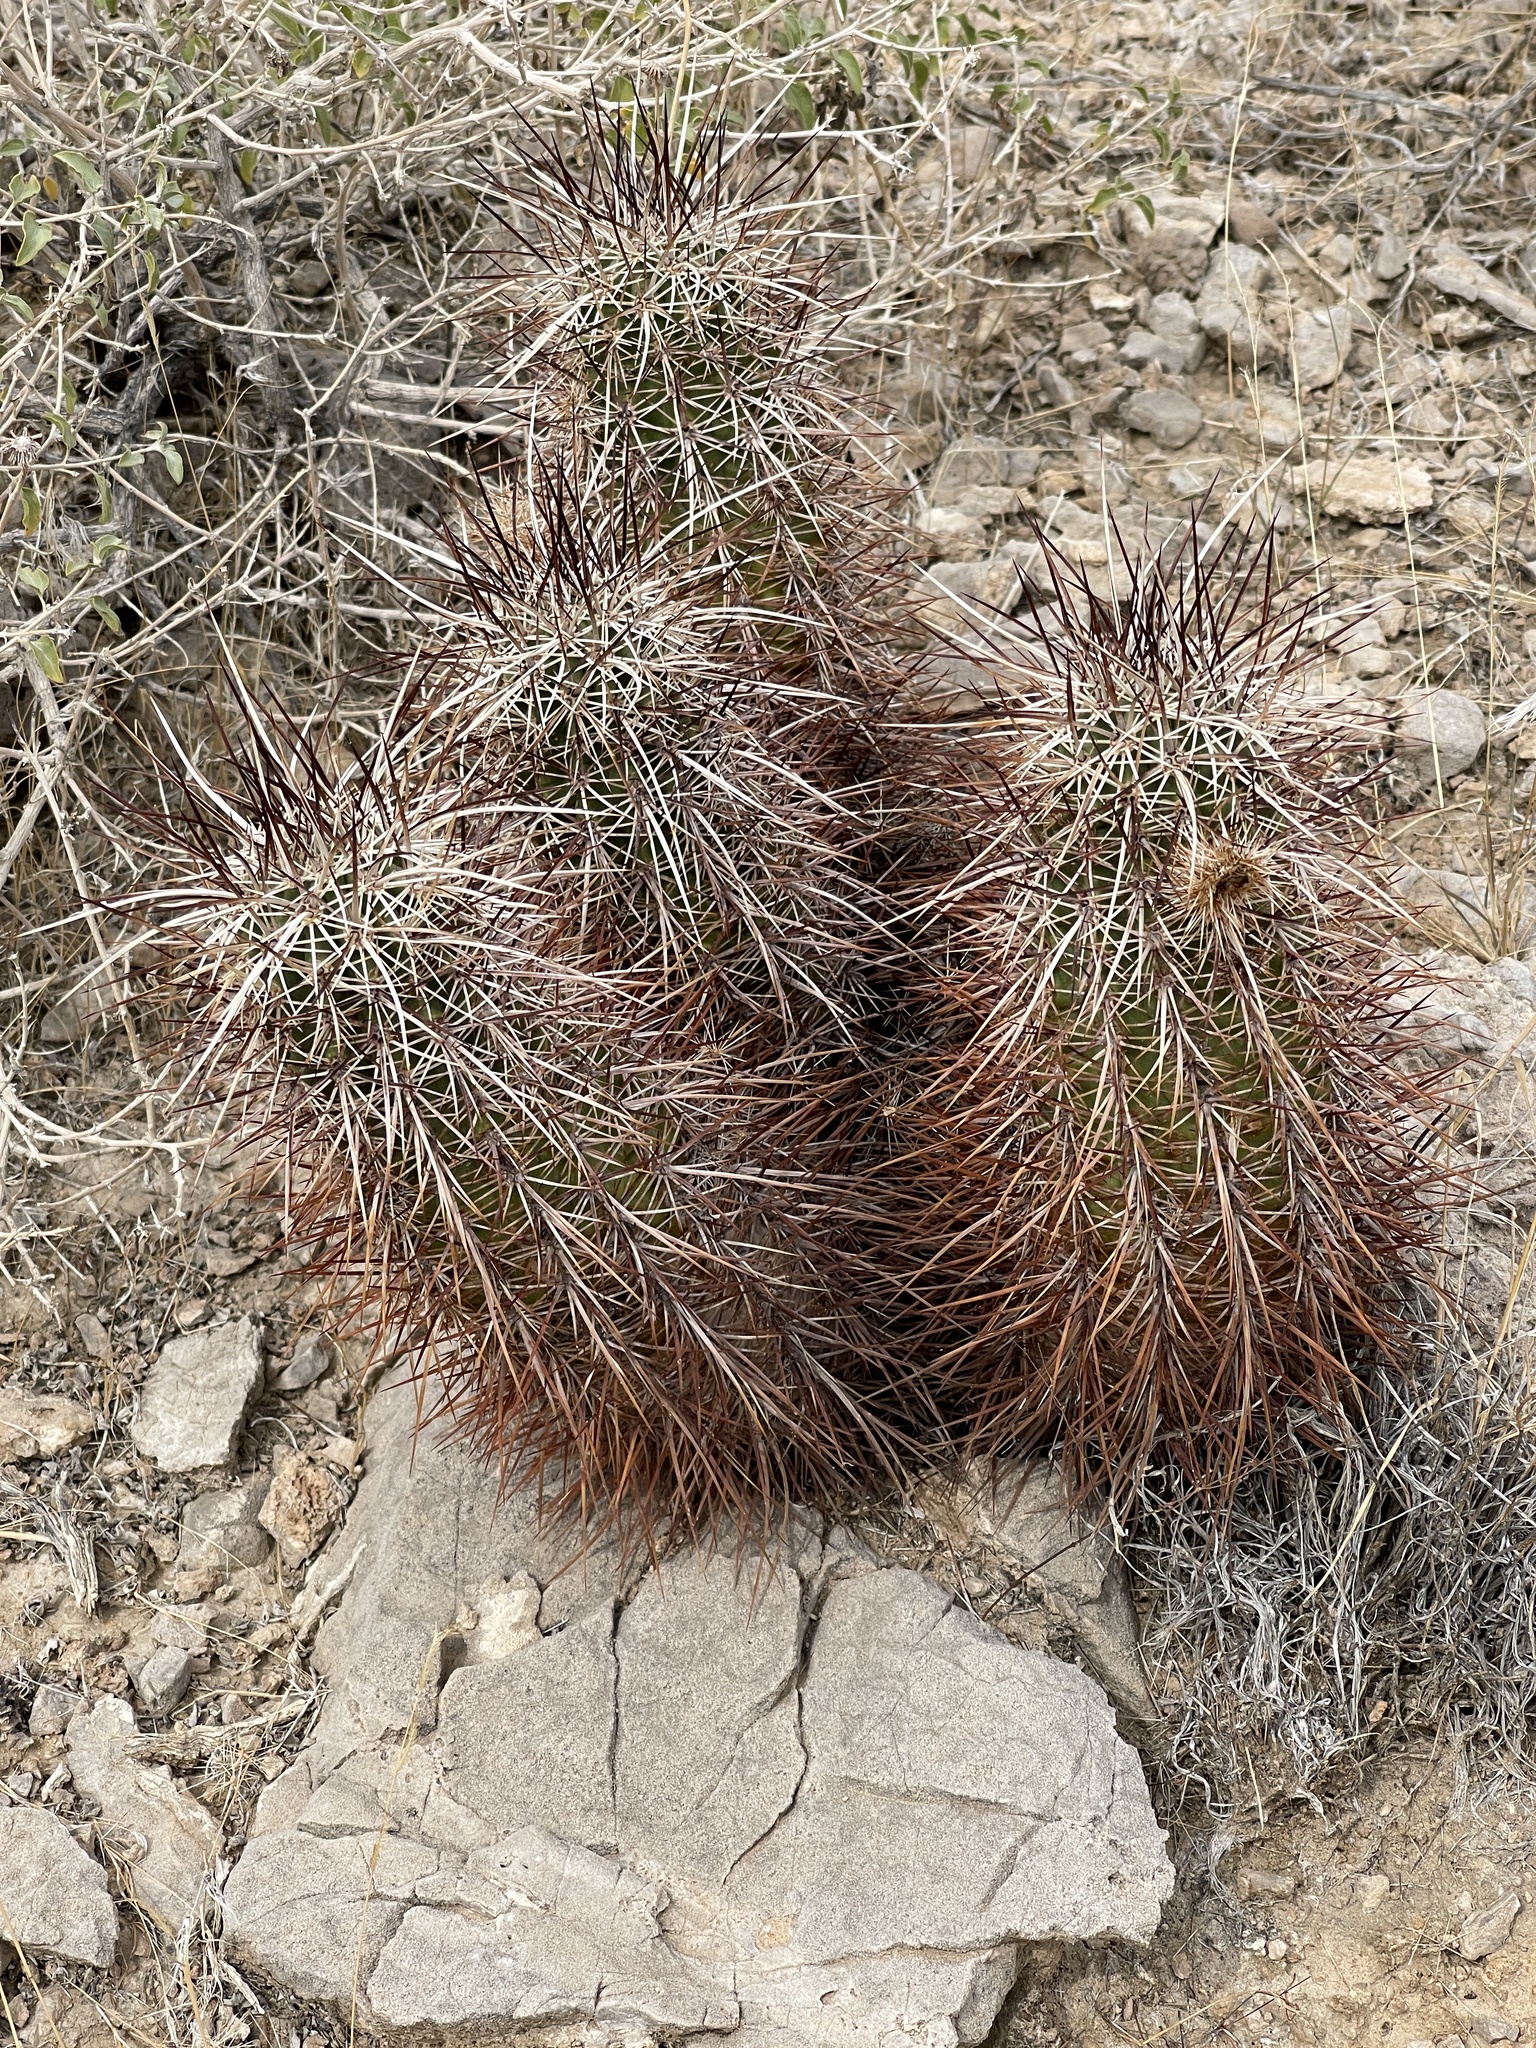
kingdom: Plantae
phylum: Tracheophyta
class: Magnoliopsida
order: Caryophyllales
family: Cactaceae
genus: Echinocereus
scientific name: Echinocereus engelmannii
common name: Engelmann's hedgehog cactus
